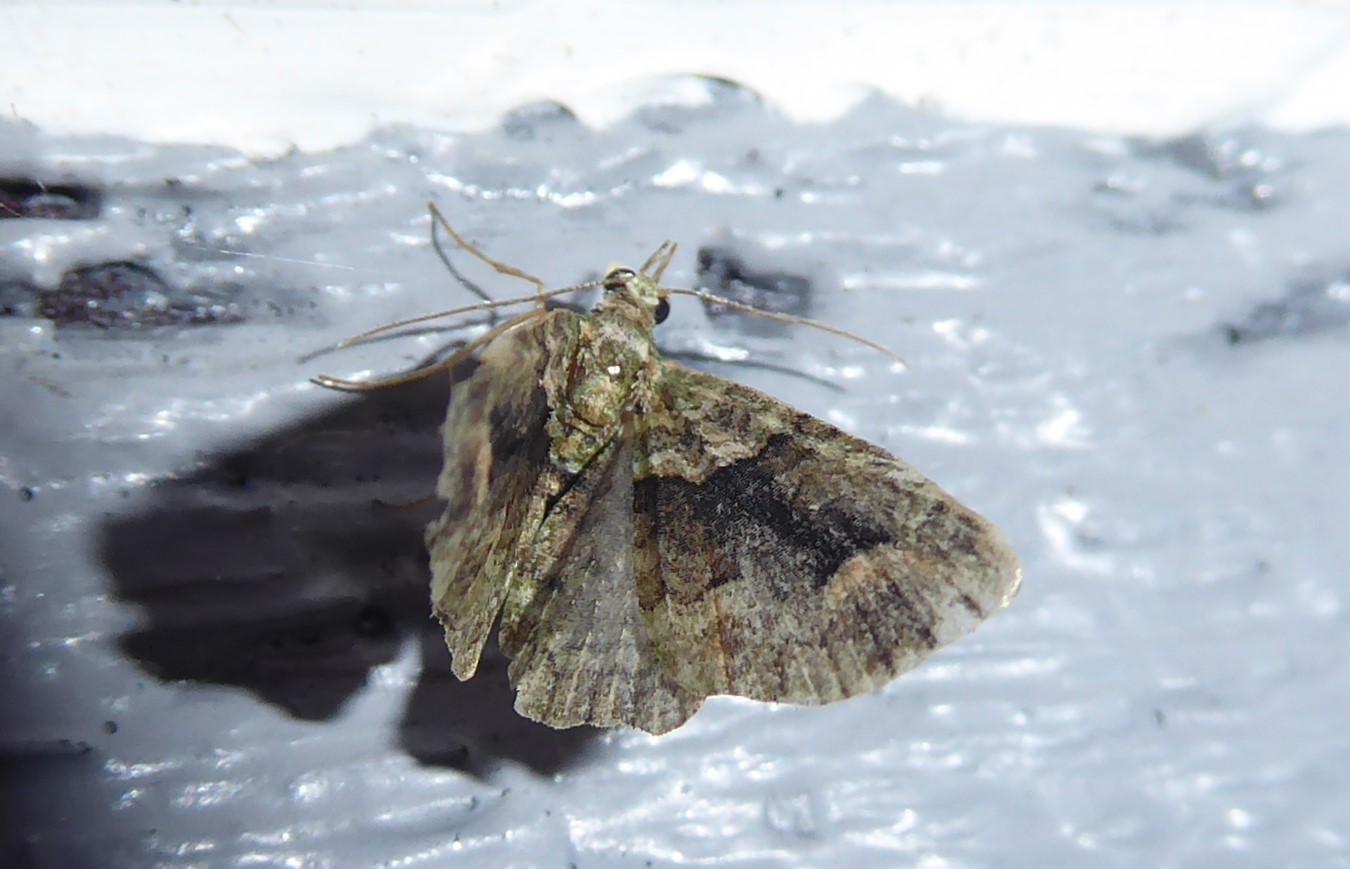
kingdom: Animalia
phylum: Arthropoda
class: Insecta
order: Lepidoptera
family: Geometridae
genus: Pasiphila
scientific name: Pasiphila suffusa
